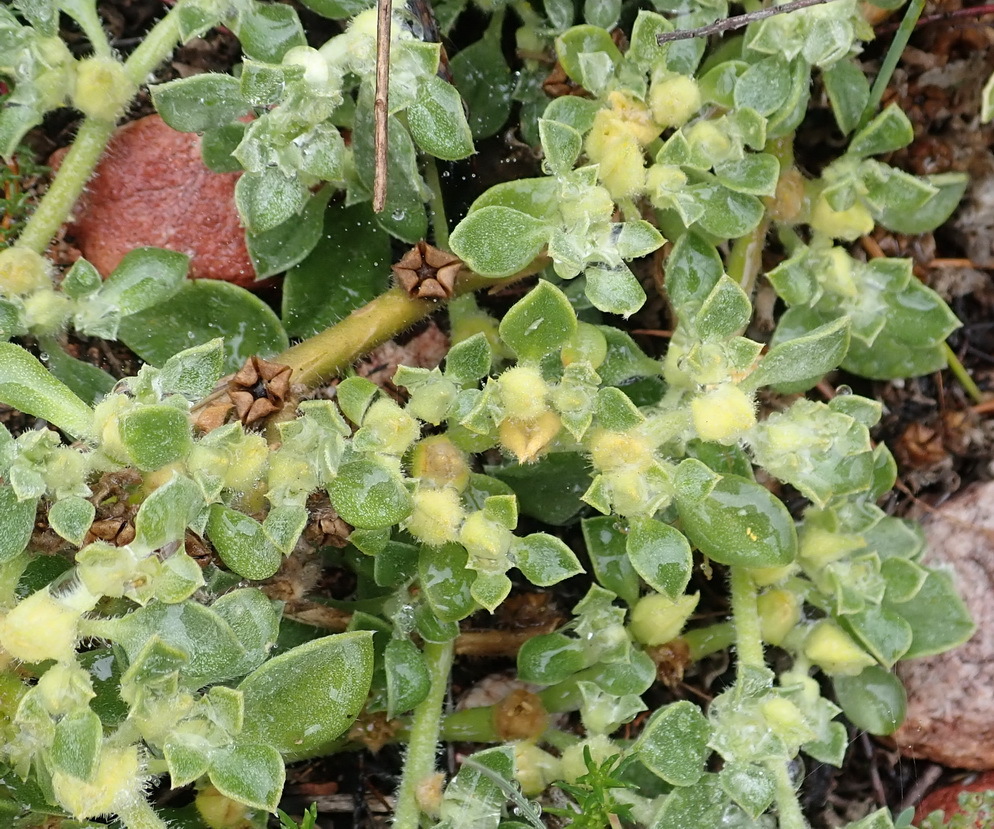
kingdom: Plantae
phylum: Tracheophyta
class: Magnoliopsida
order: Caryophyllales
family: Aizoaceae
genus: Aizoon
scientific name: Aizoon glinoides
